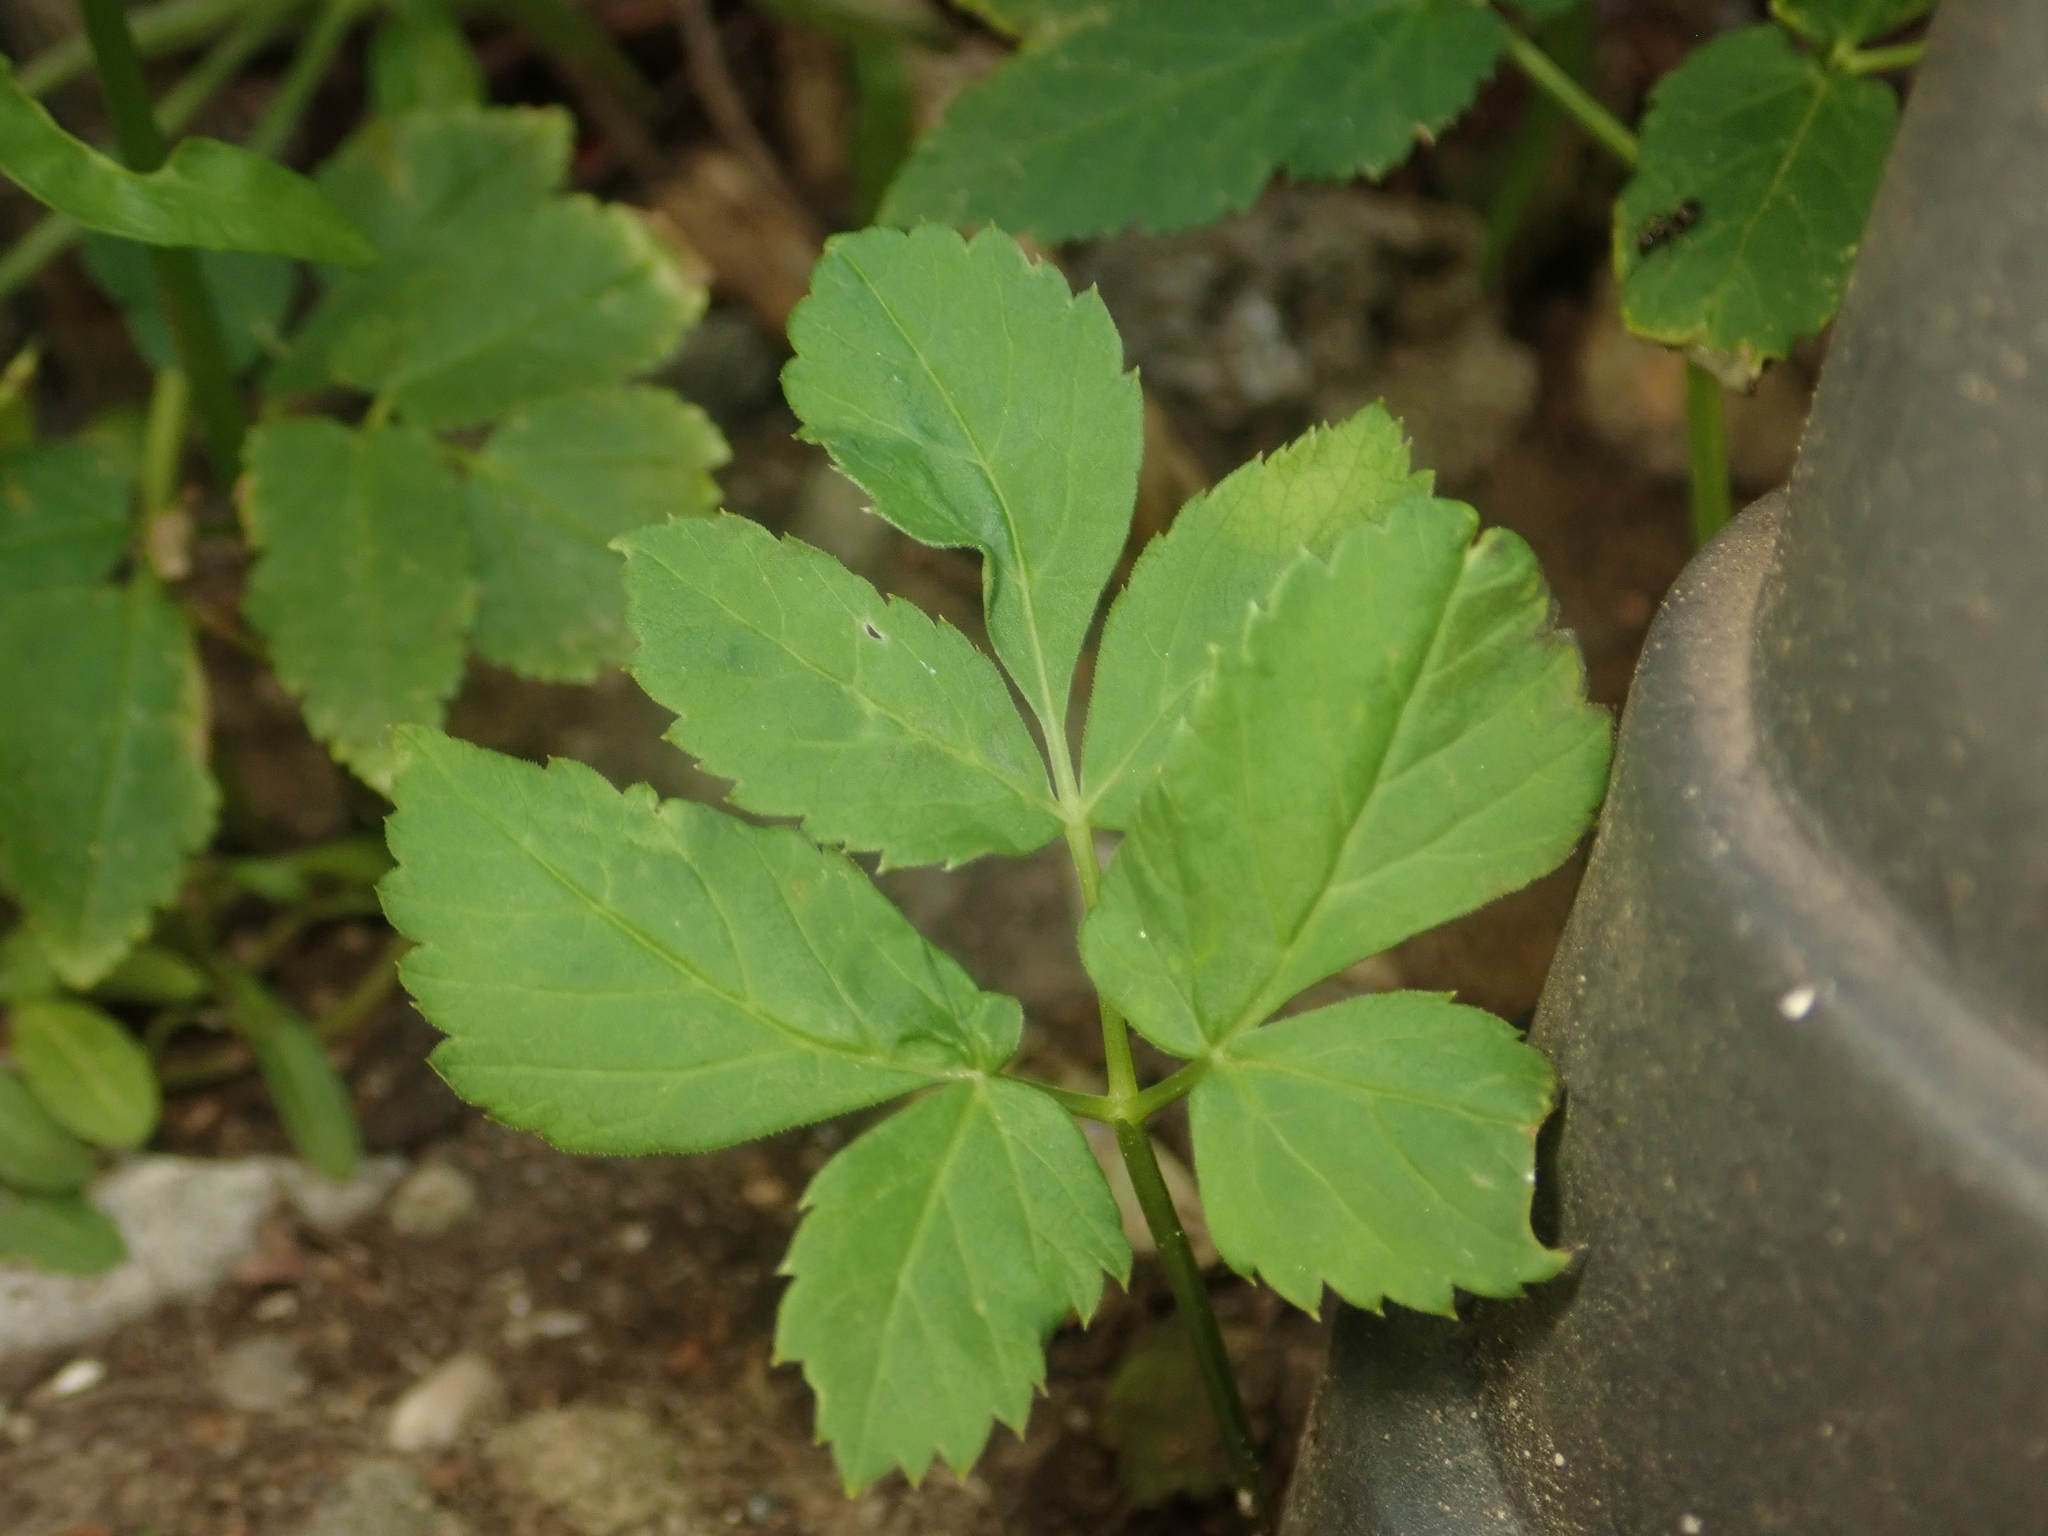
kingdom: Plantae
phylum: Tracheophyta
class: Magnoliopsida
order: Apiales
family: Apiaceae
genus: Aegopodium
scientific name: Aegopodium podagraria
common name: Ground-elder
